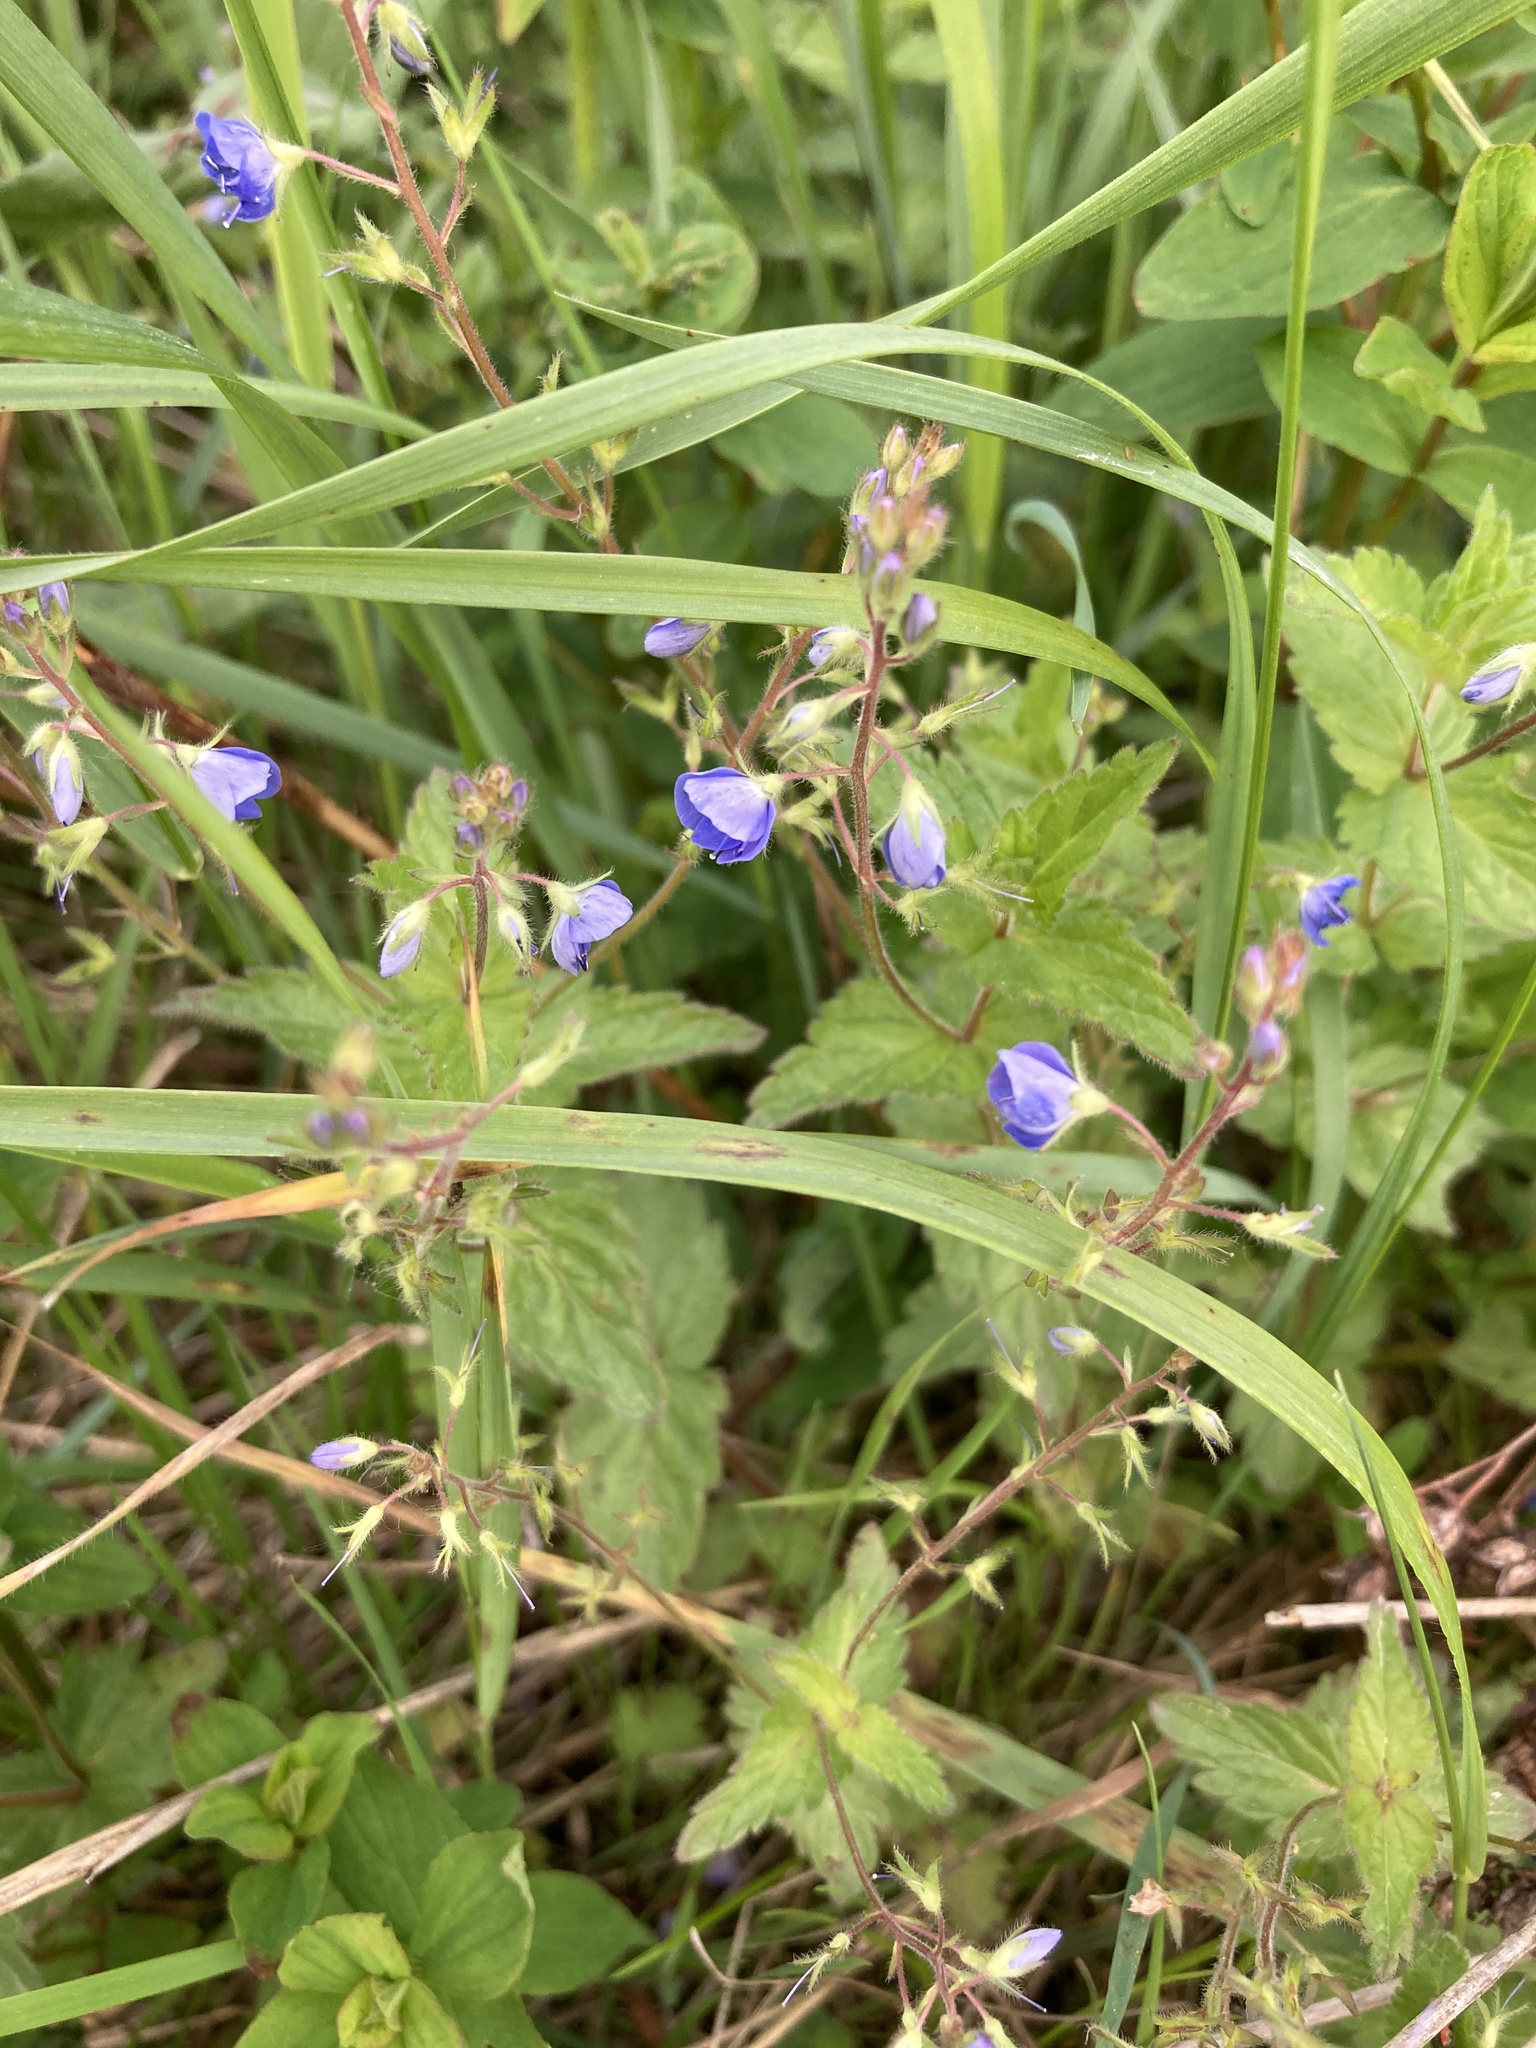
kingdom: Plantae
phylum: Tracheophyta
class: Magnoliopsida
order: Lamiales
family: Plantaginaceae
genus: Veronica
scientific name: Veronica chamaedrys
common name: Germander speedwell
